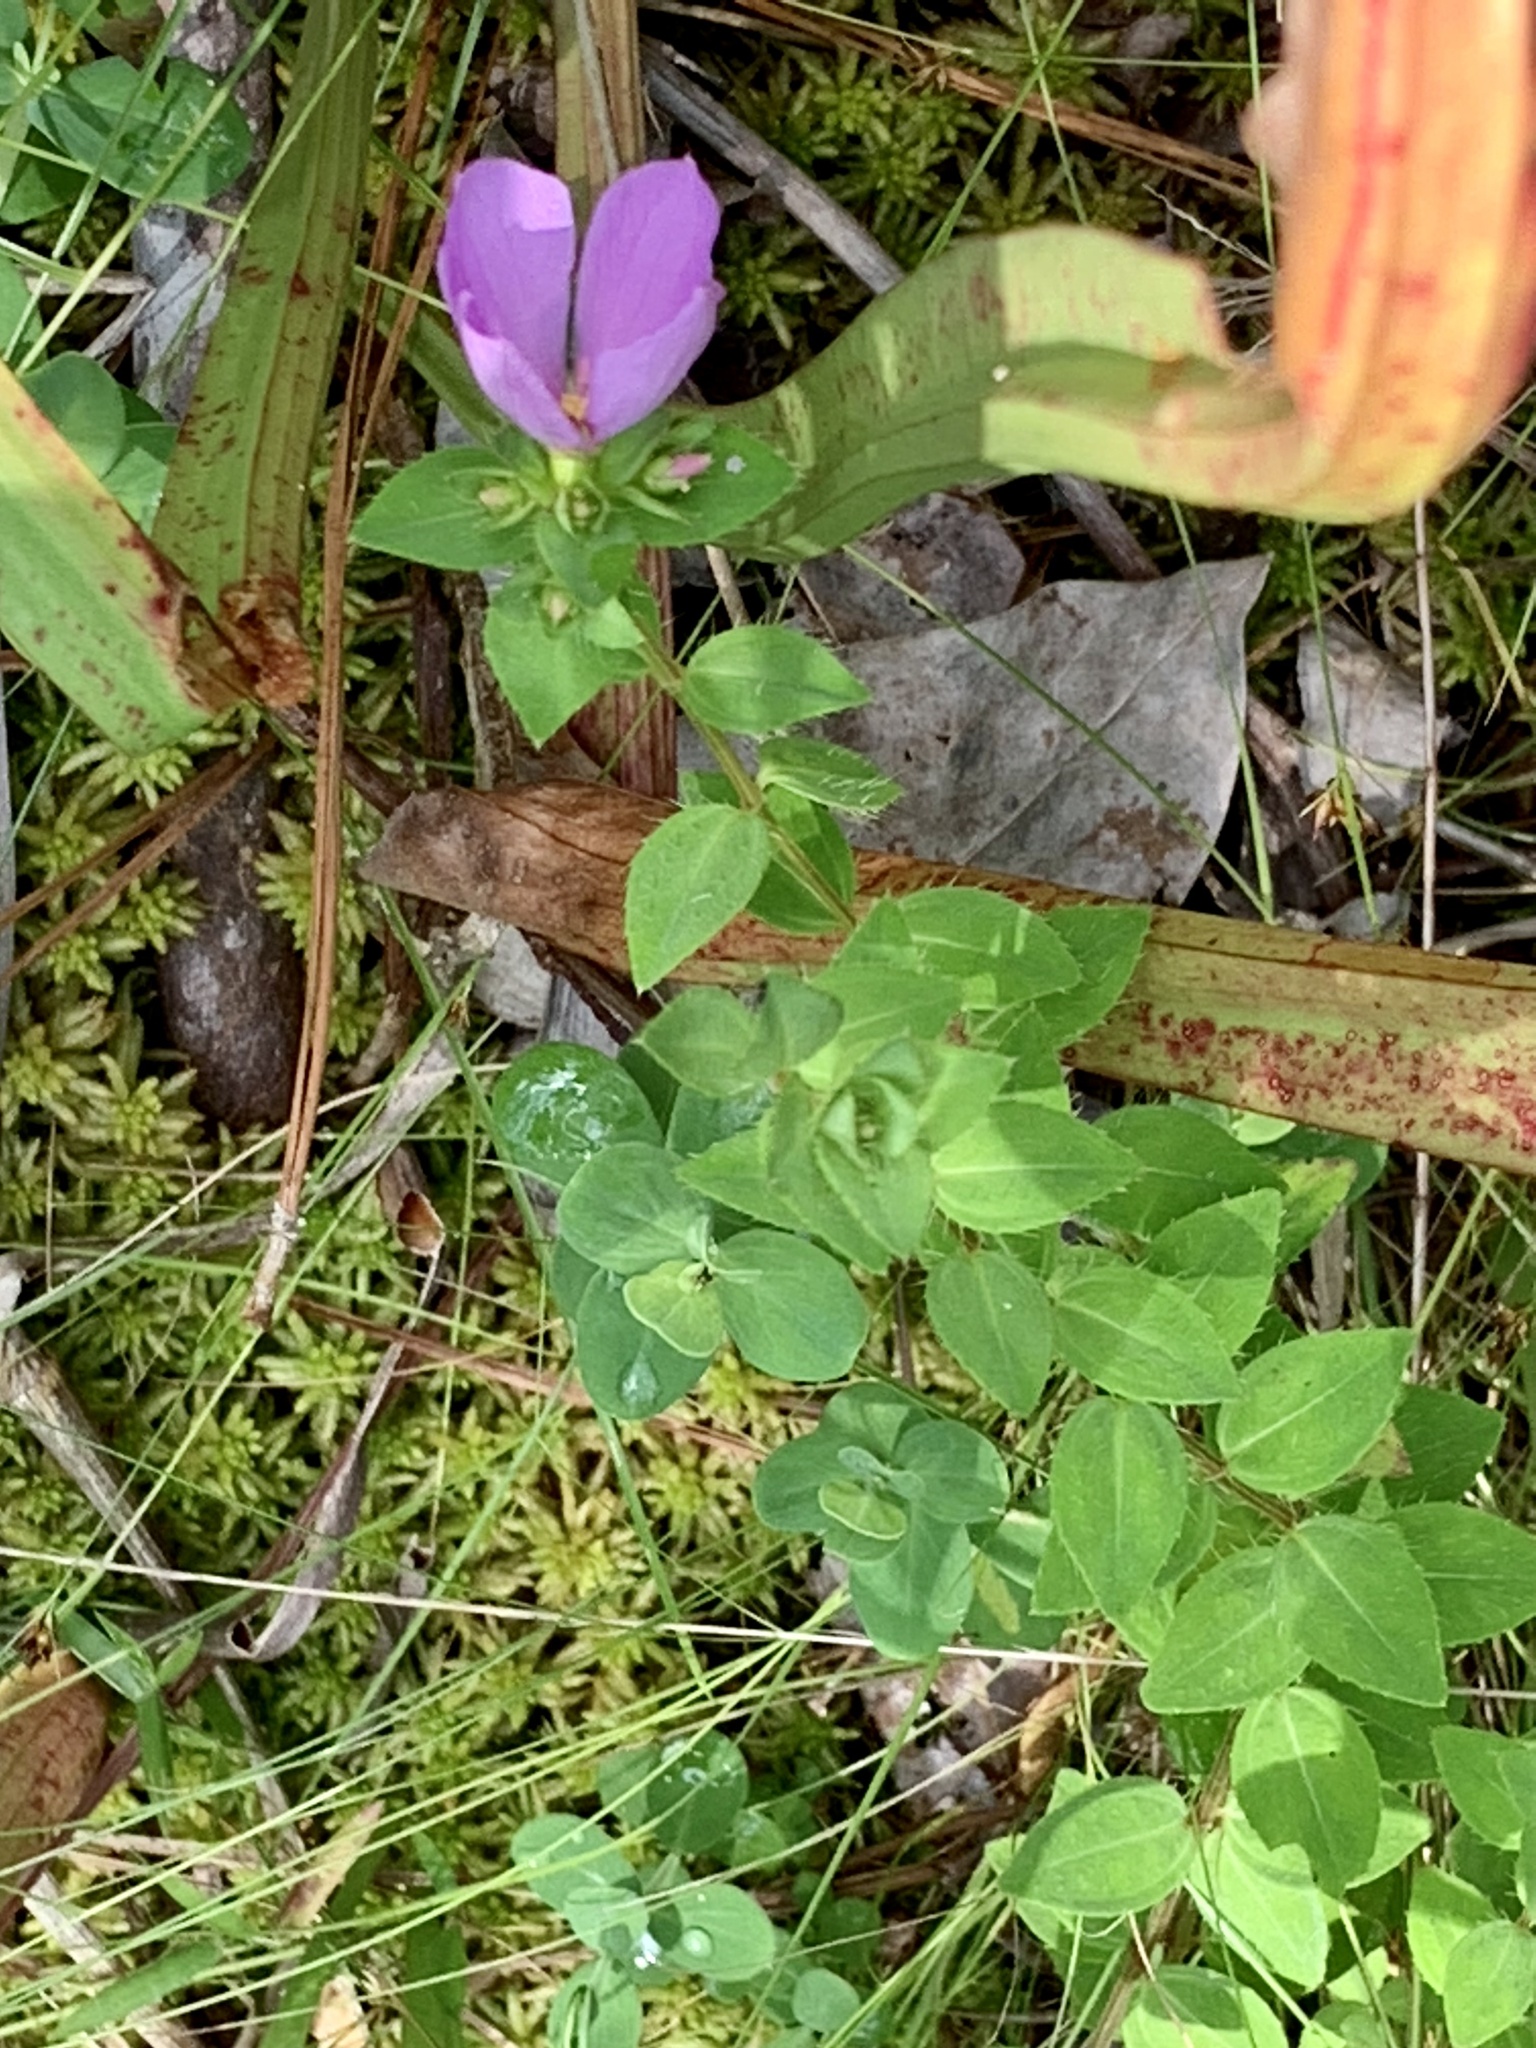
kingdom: Plantae
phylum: Tracheophyta
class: Magnoliopsida
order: Myrtales
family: Melastomataceae
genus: Rhexia
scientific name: Rhexia petiolata
